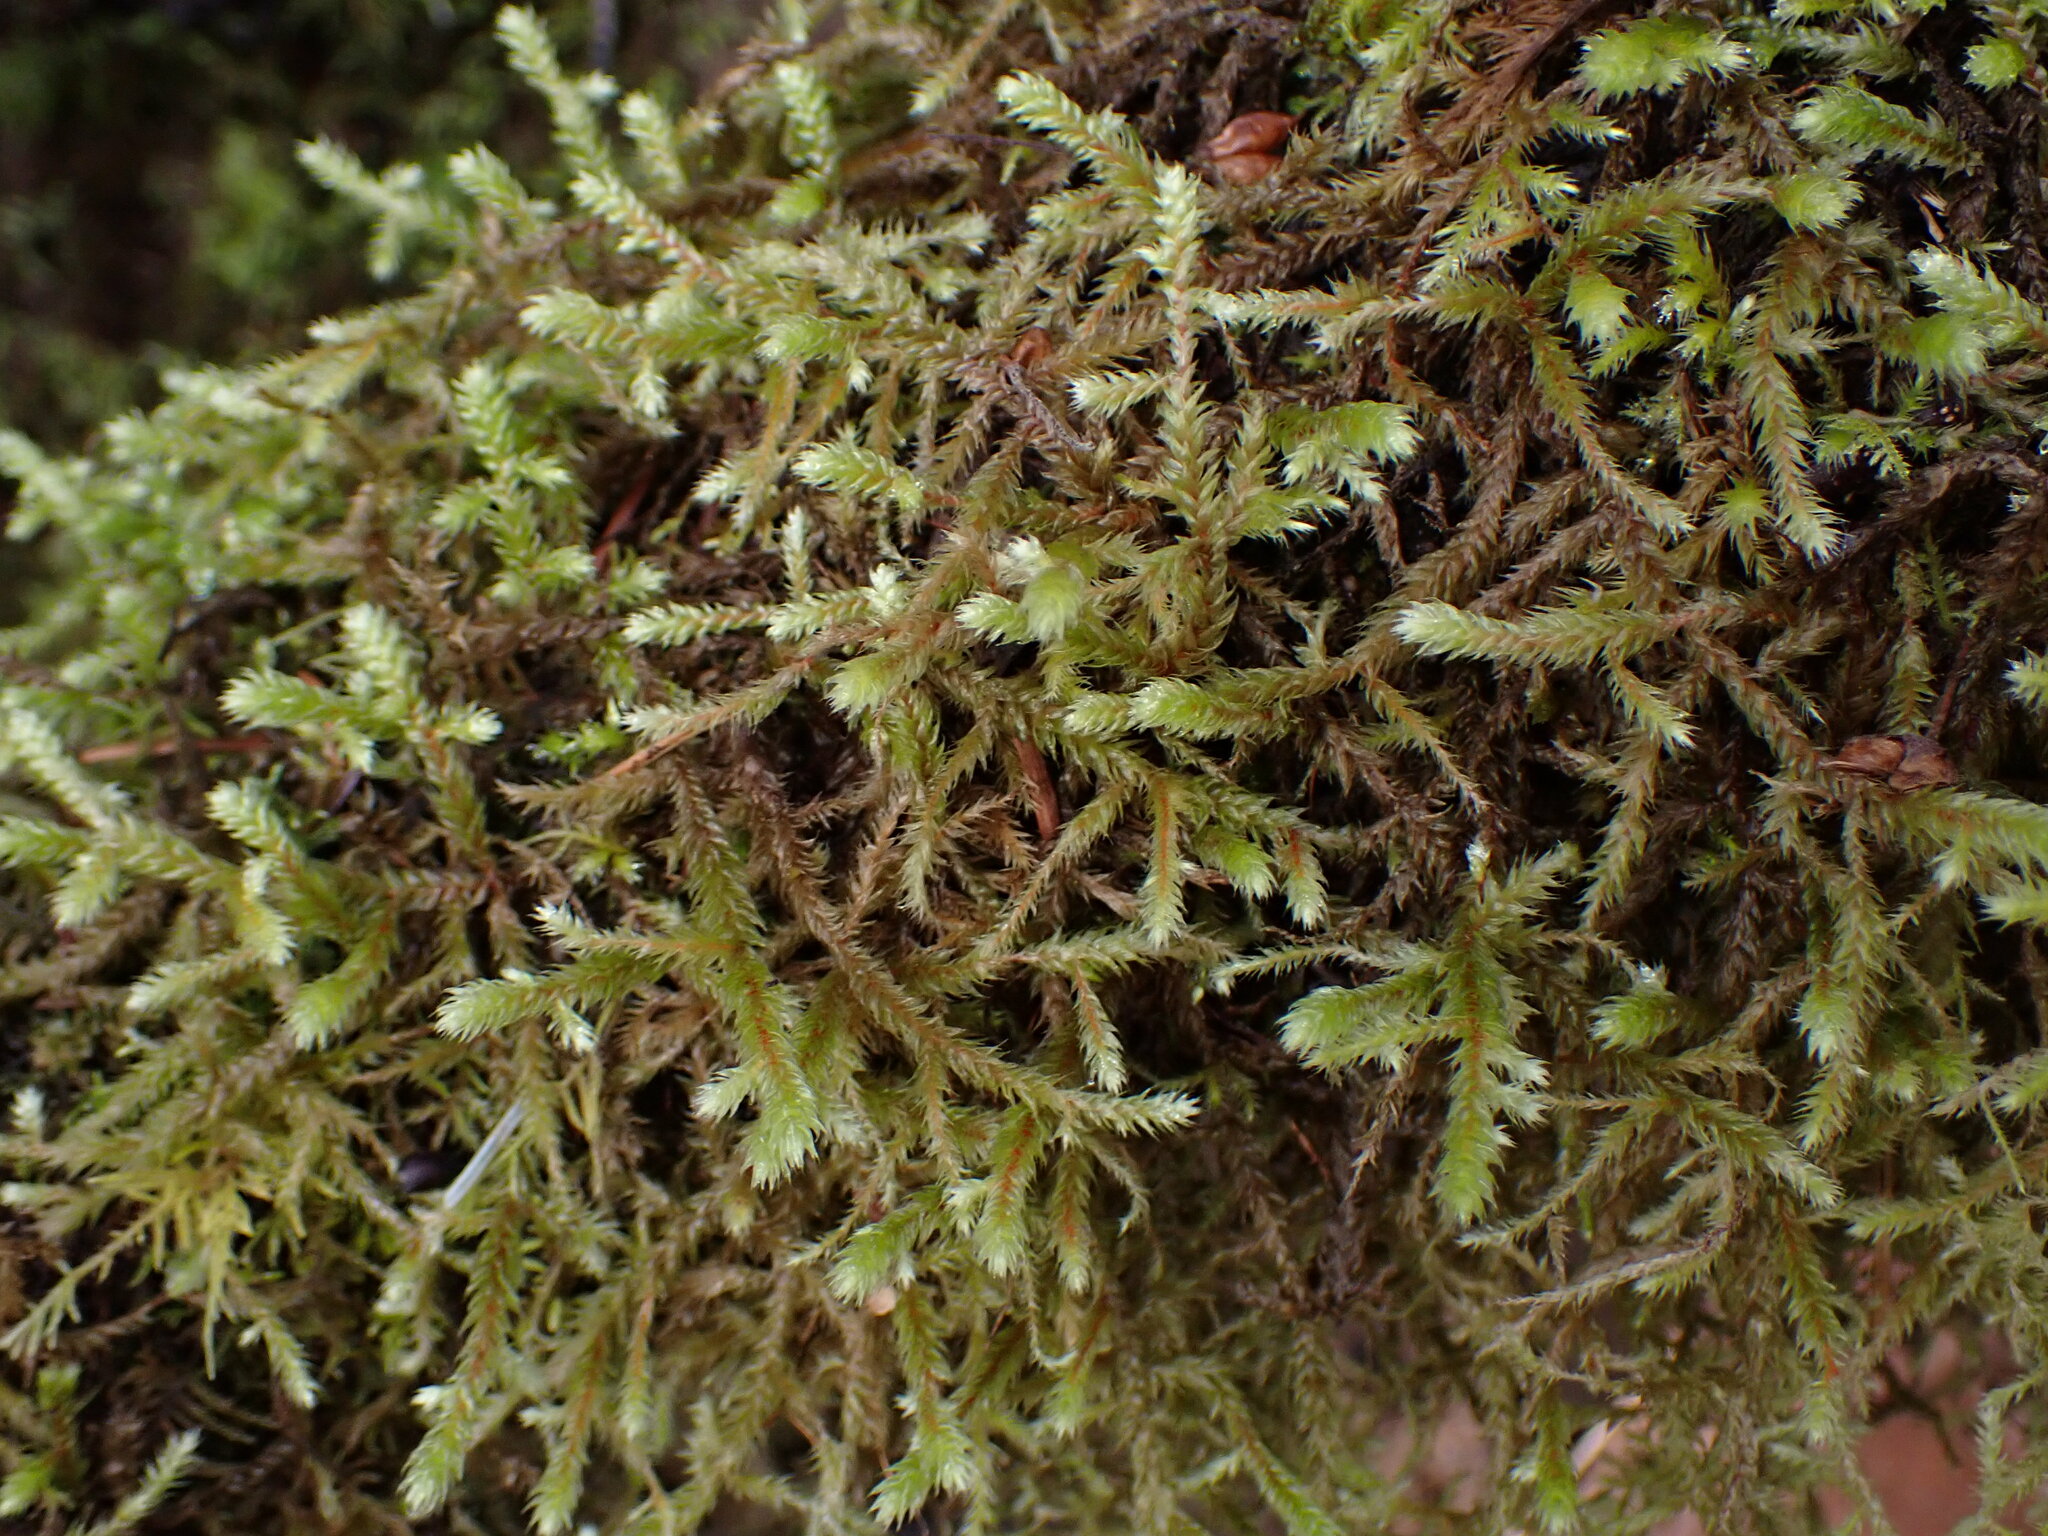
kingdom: Plantae
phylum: Bryophyta
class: Bryopsida
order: Hypnales
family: Antitrichiaceae
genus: Antitrichia
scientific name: Antitrichia curtipendula
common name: Pendulous wing-moss
